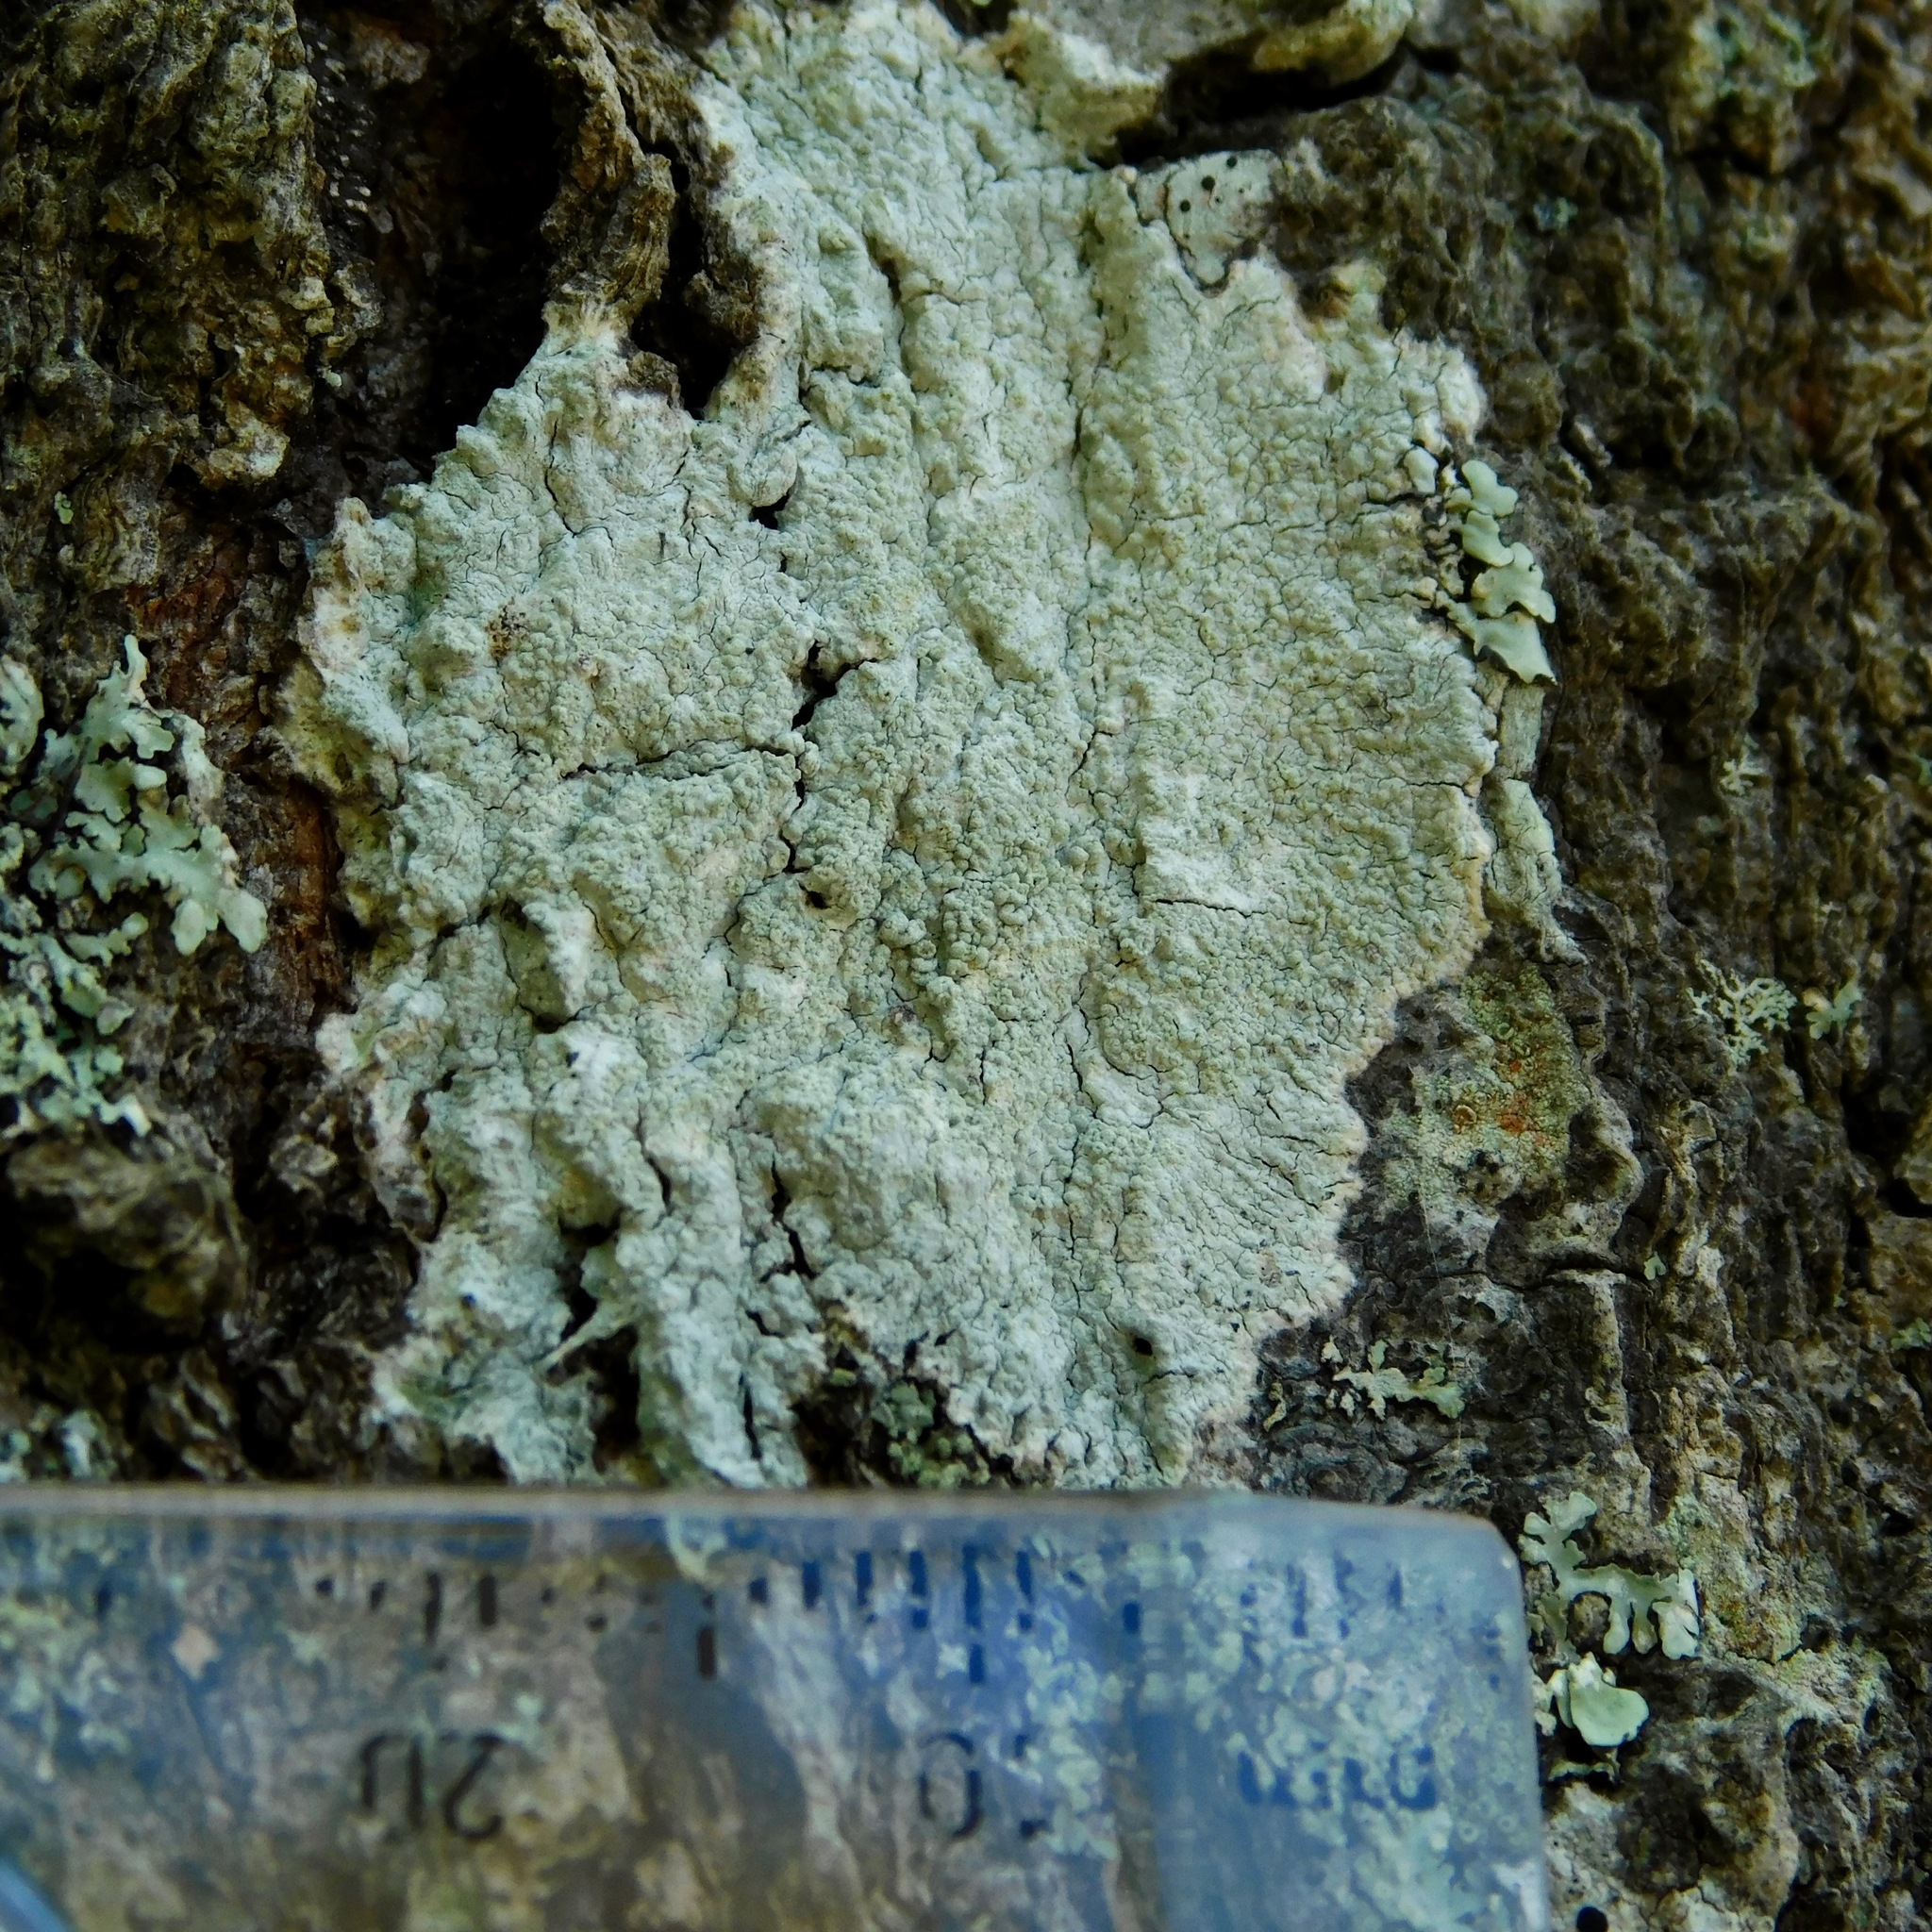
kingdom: Fungi
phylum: Ascomycota
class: Lecanoromycetes
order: Pertusariales
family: Pertusariaceae
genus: Lepra
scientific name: Lepra pustulata
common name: Pustule crust lichen
